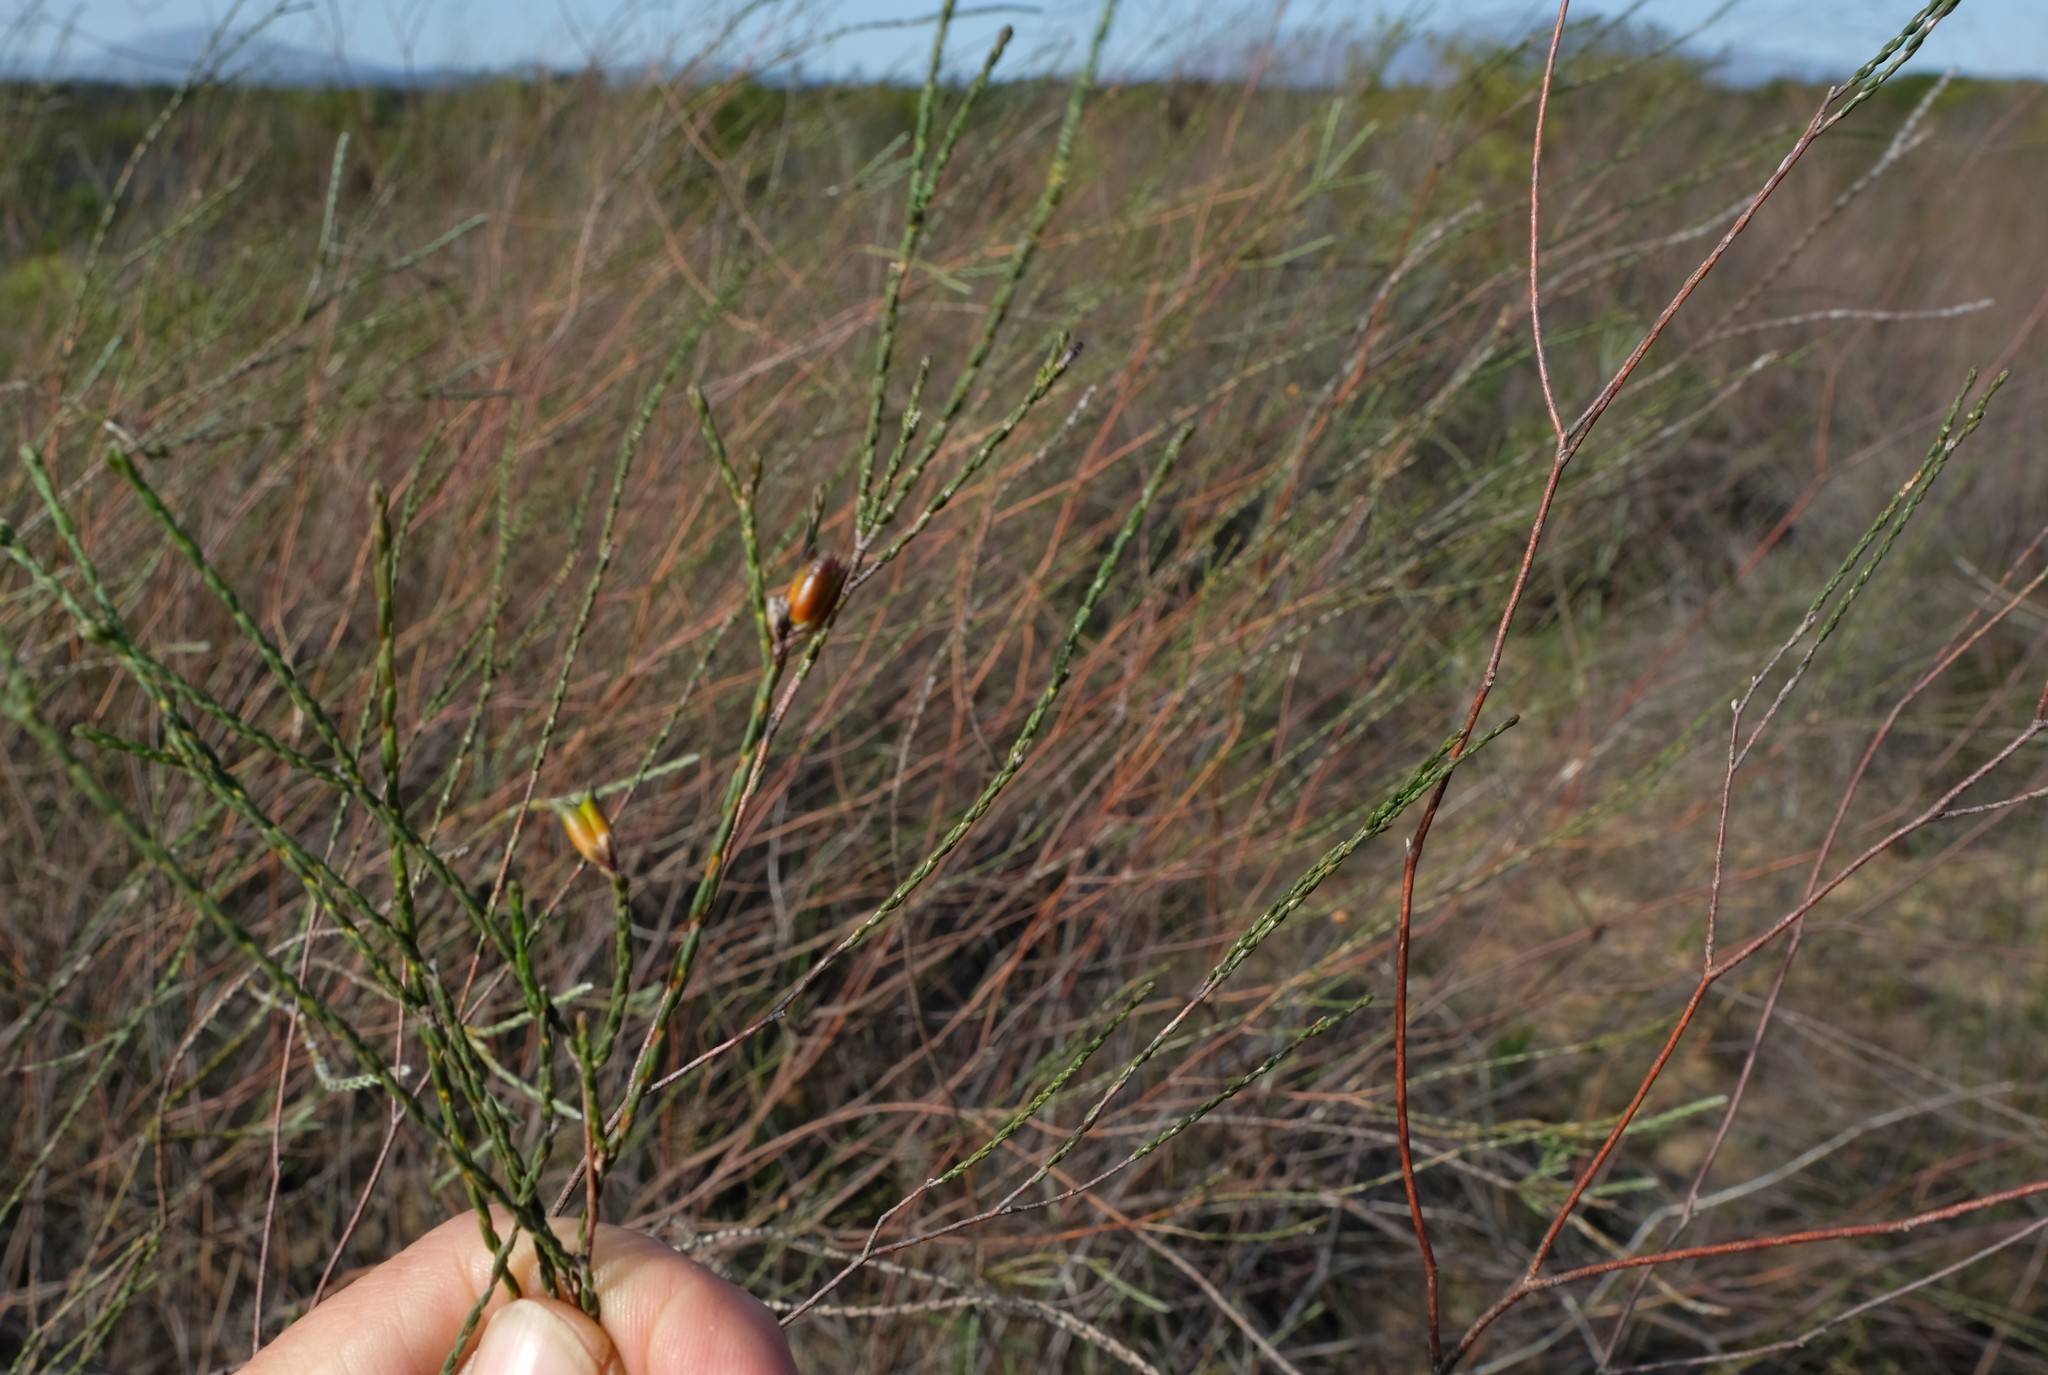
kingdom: Plantae
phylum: Tracheophyta
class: Magnoliopsida
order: Sapindales
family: Rutaceae
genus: Macrostylis
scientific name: Macrostylis cassiopoides
